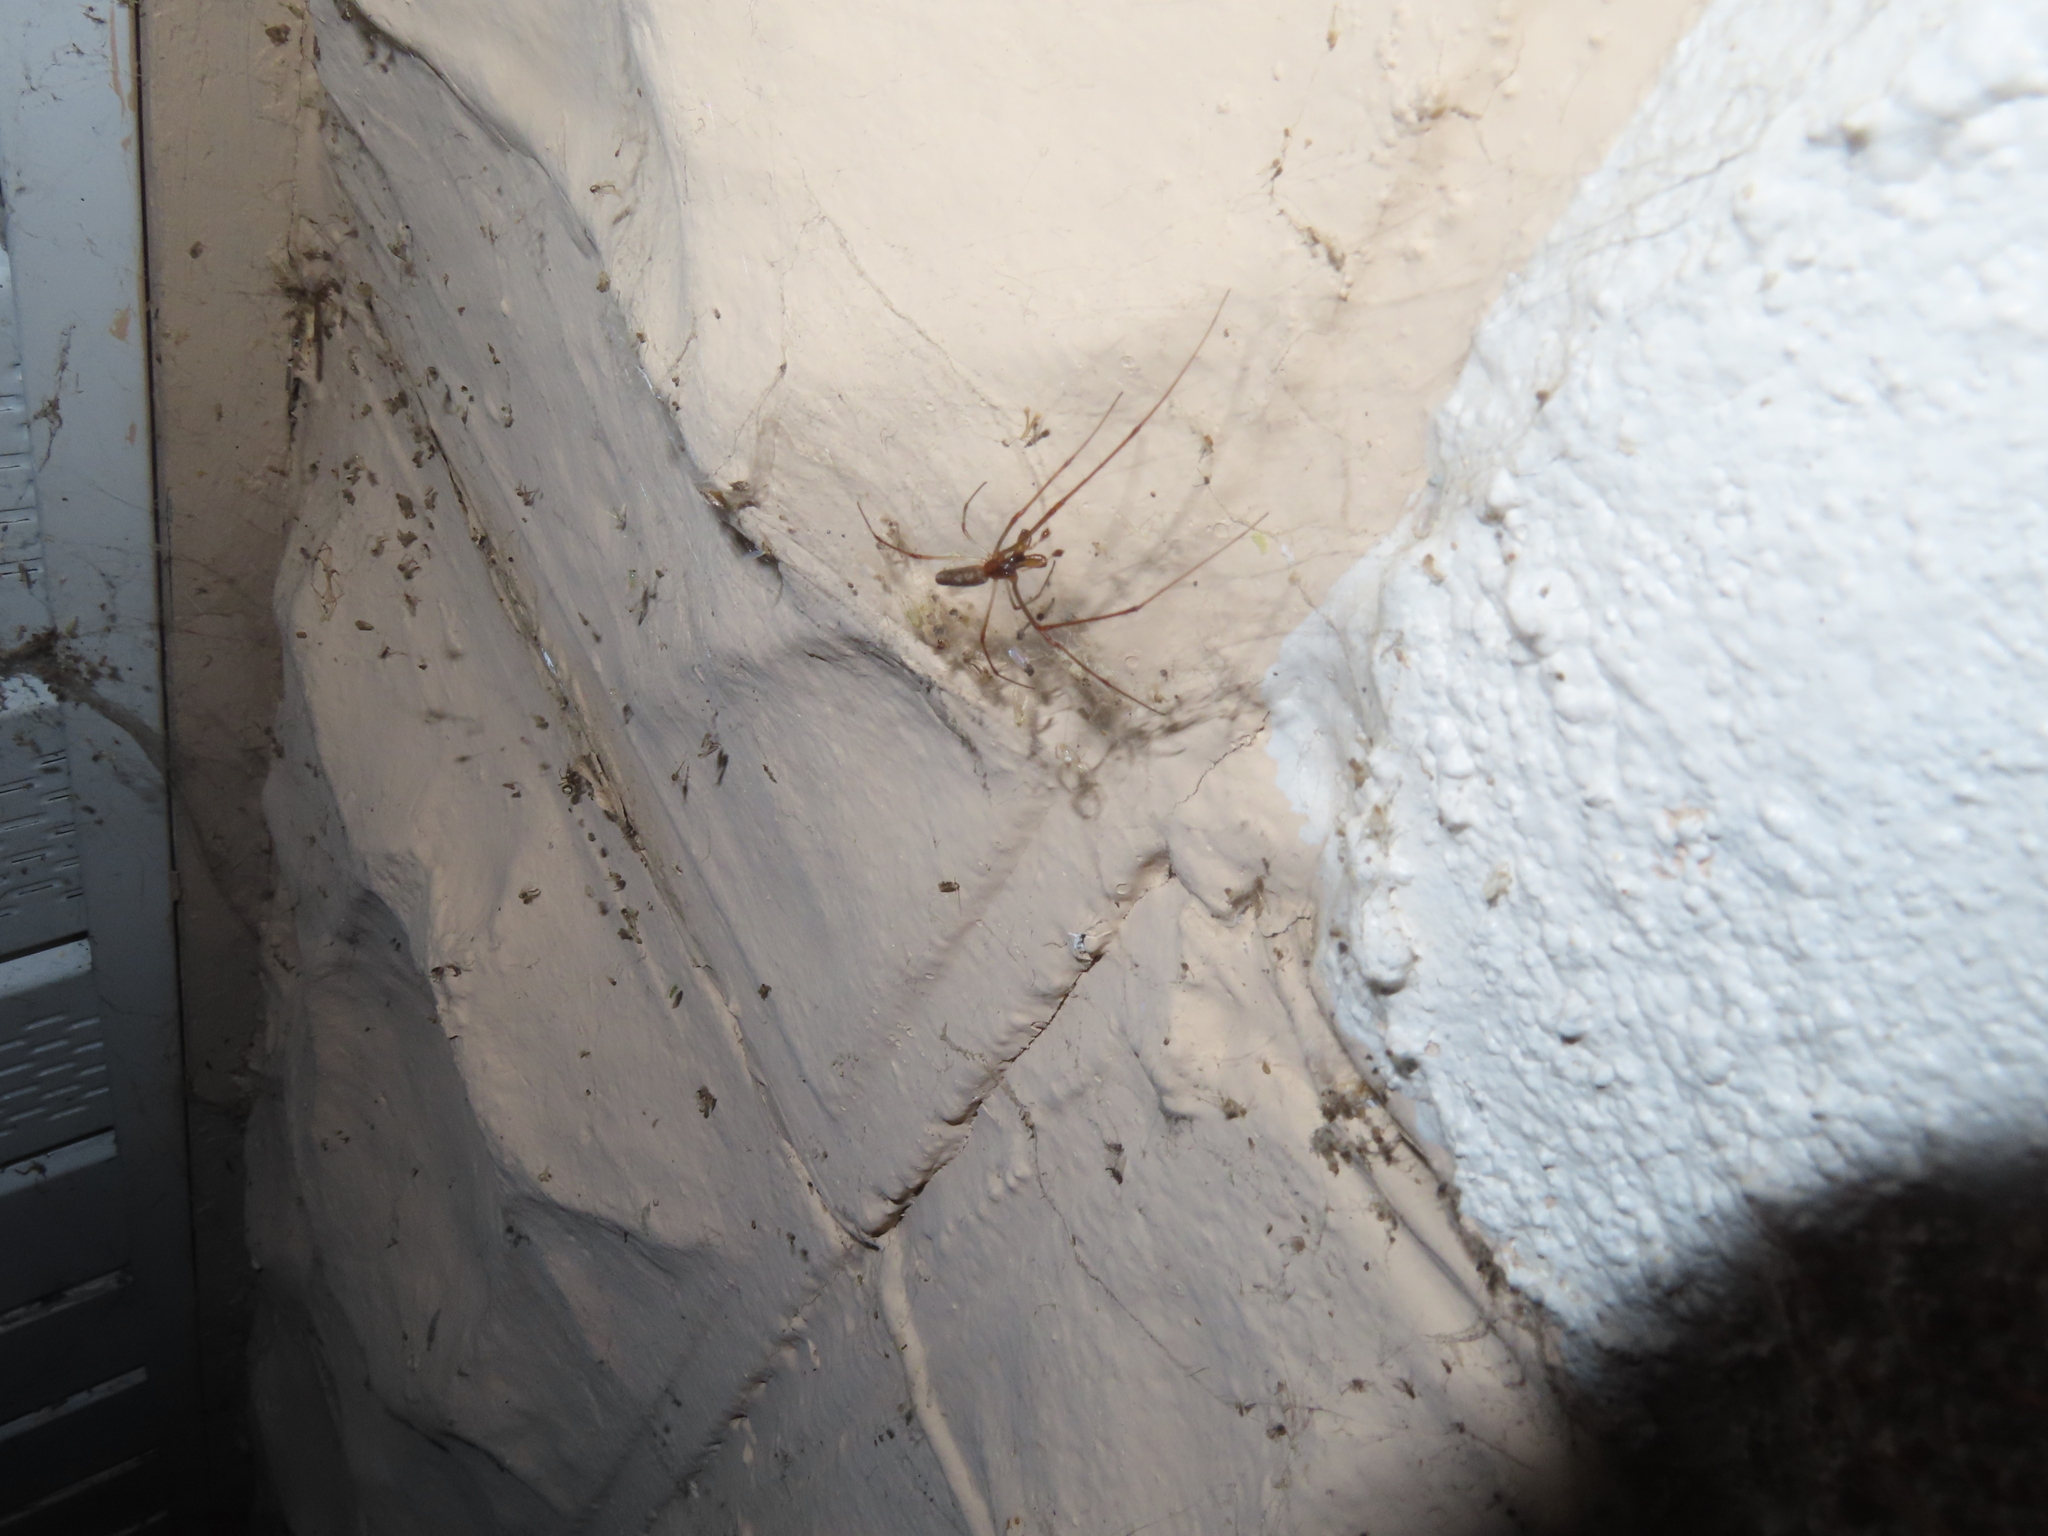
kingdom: Animalia
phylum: Arthropoda
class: Arachnida
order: Araneae
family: Tetragnathidae
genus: Tetragnatha
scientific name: Tetragnatha
